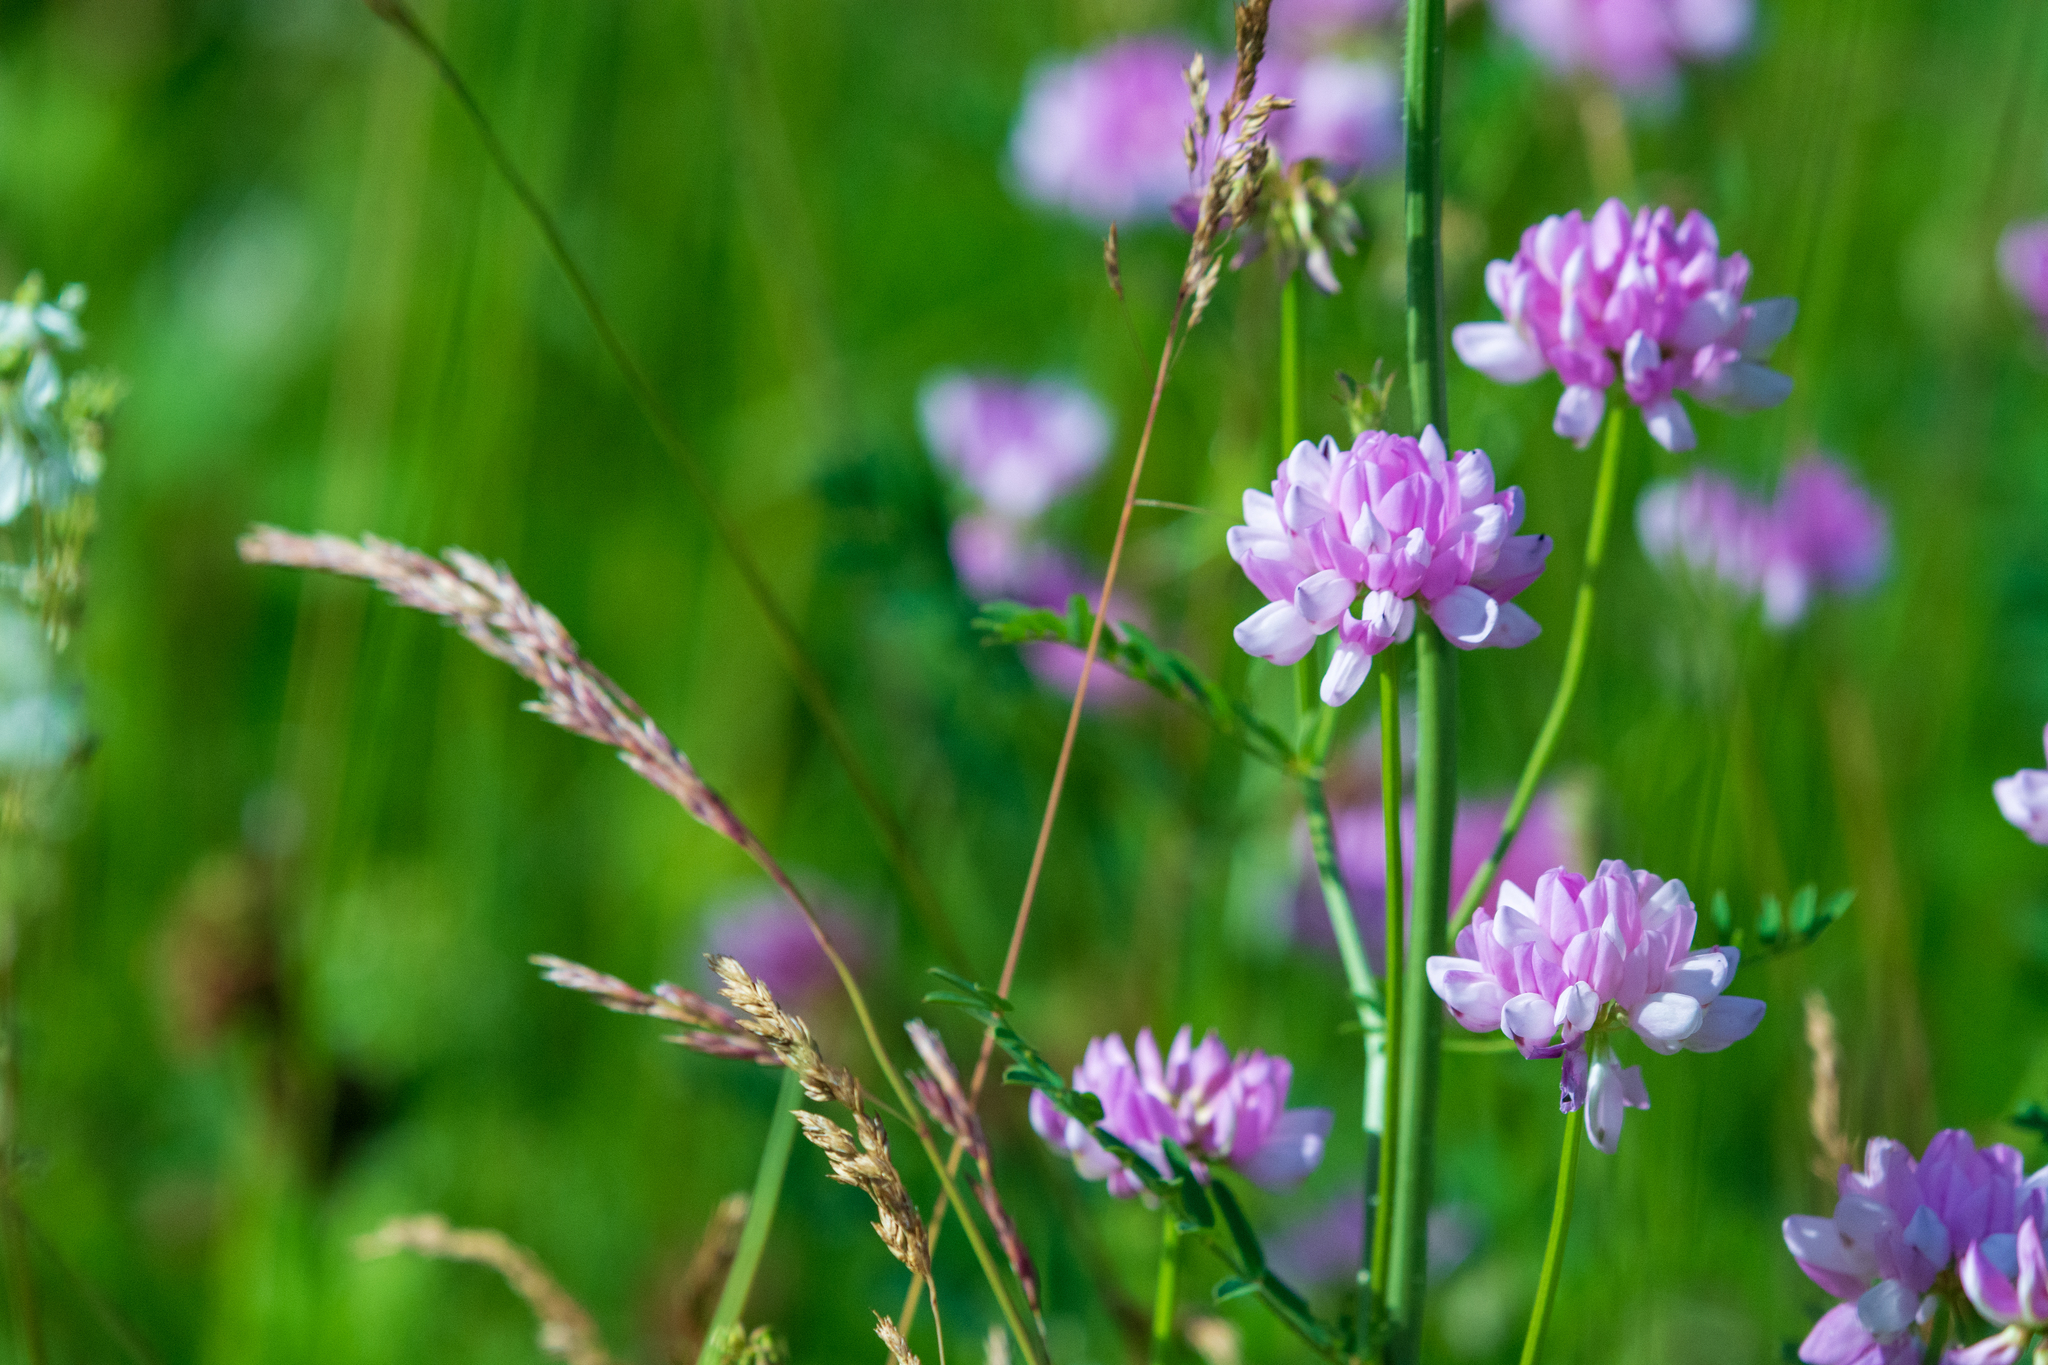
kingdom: Plantae
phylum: Tracheophyta
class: Magnoliopsida
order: Fabales
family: Fabaceae
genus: Coronilla
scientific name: Coronilla varia
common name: Crownvetch
